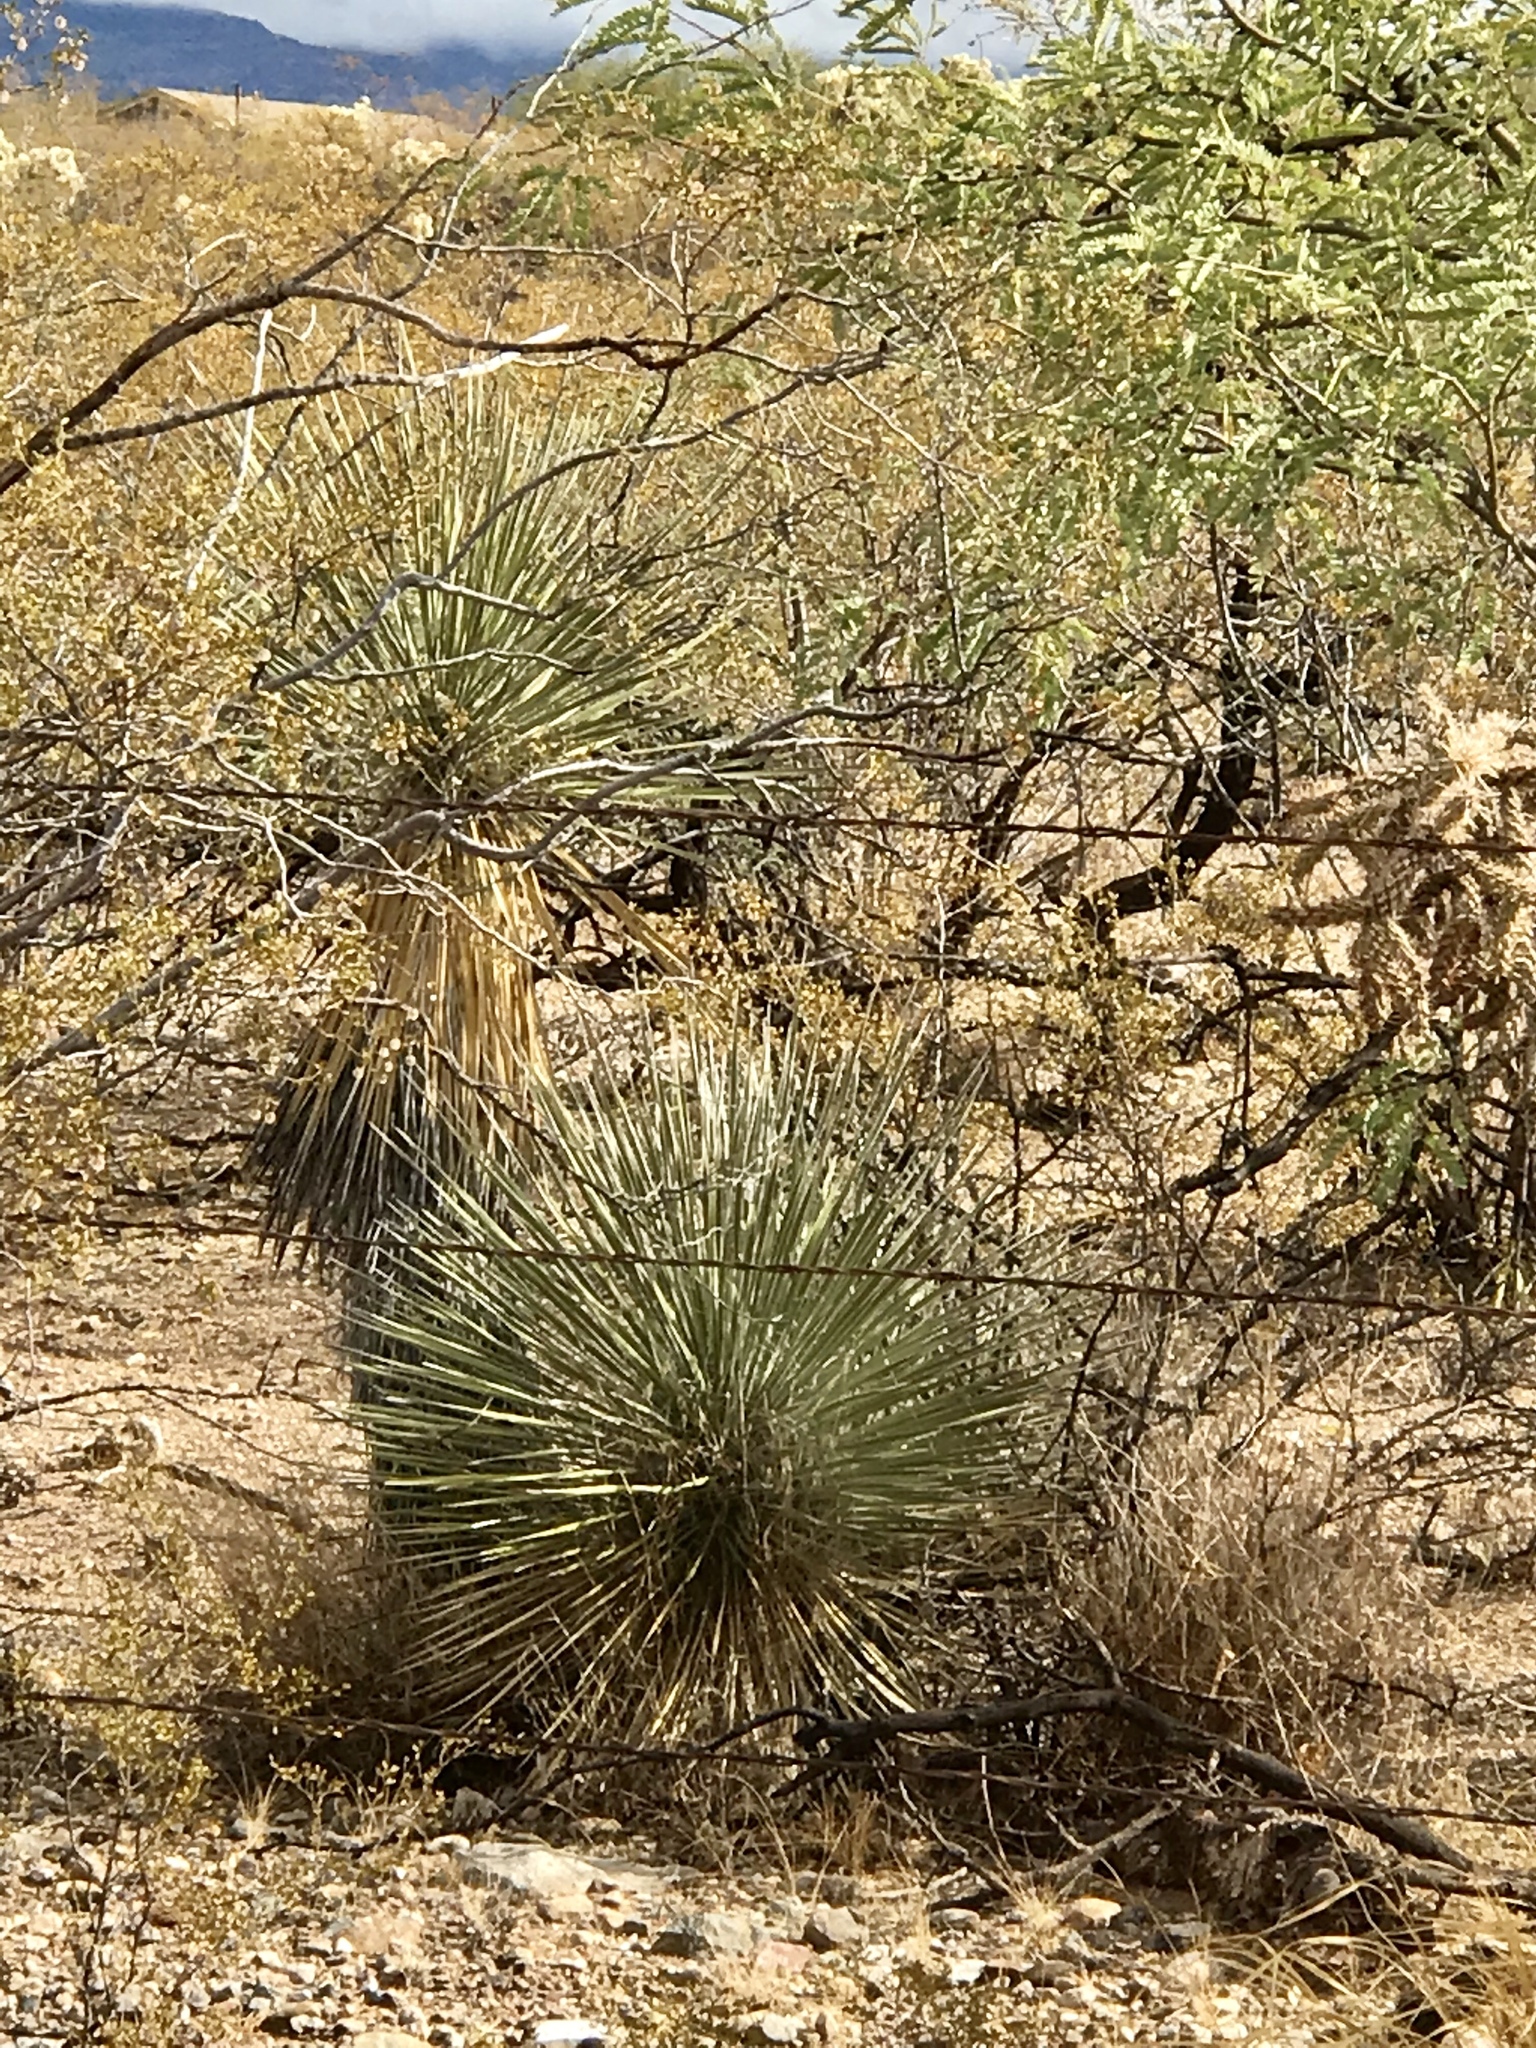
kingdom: Plantae
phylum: Tracheophyta
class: Liliopsida
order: Asparagales
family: Asparagaceae
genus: Yucca
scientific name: Yucca elata
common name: Palmella
